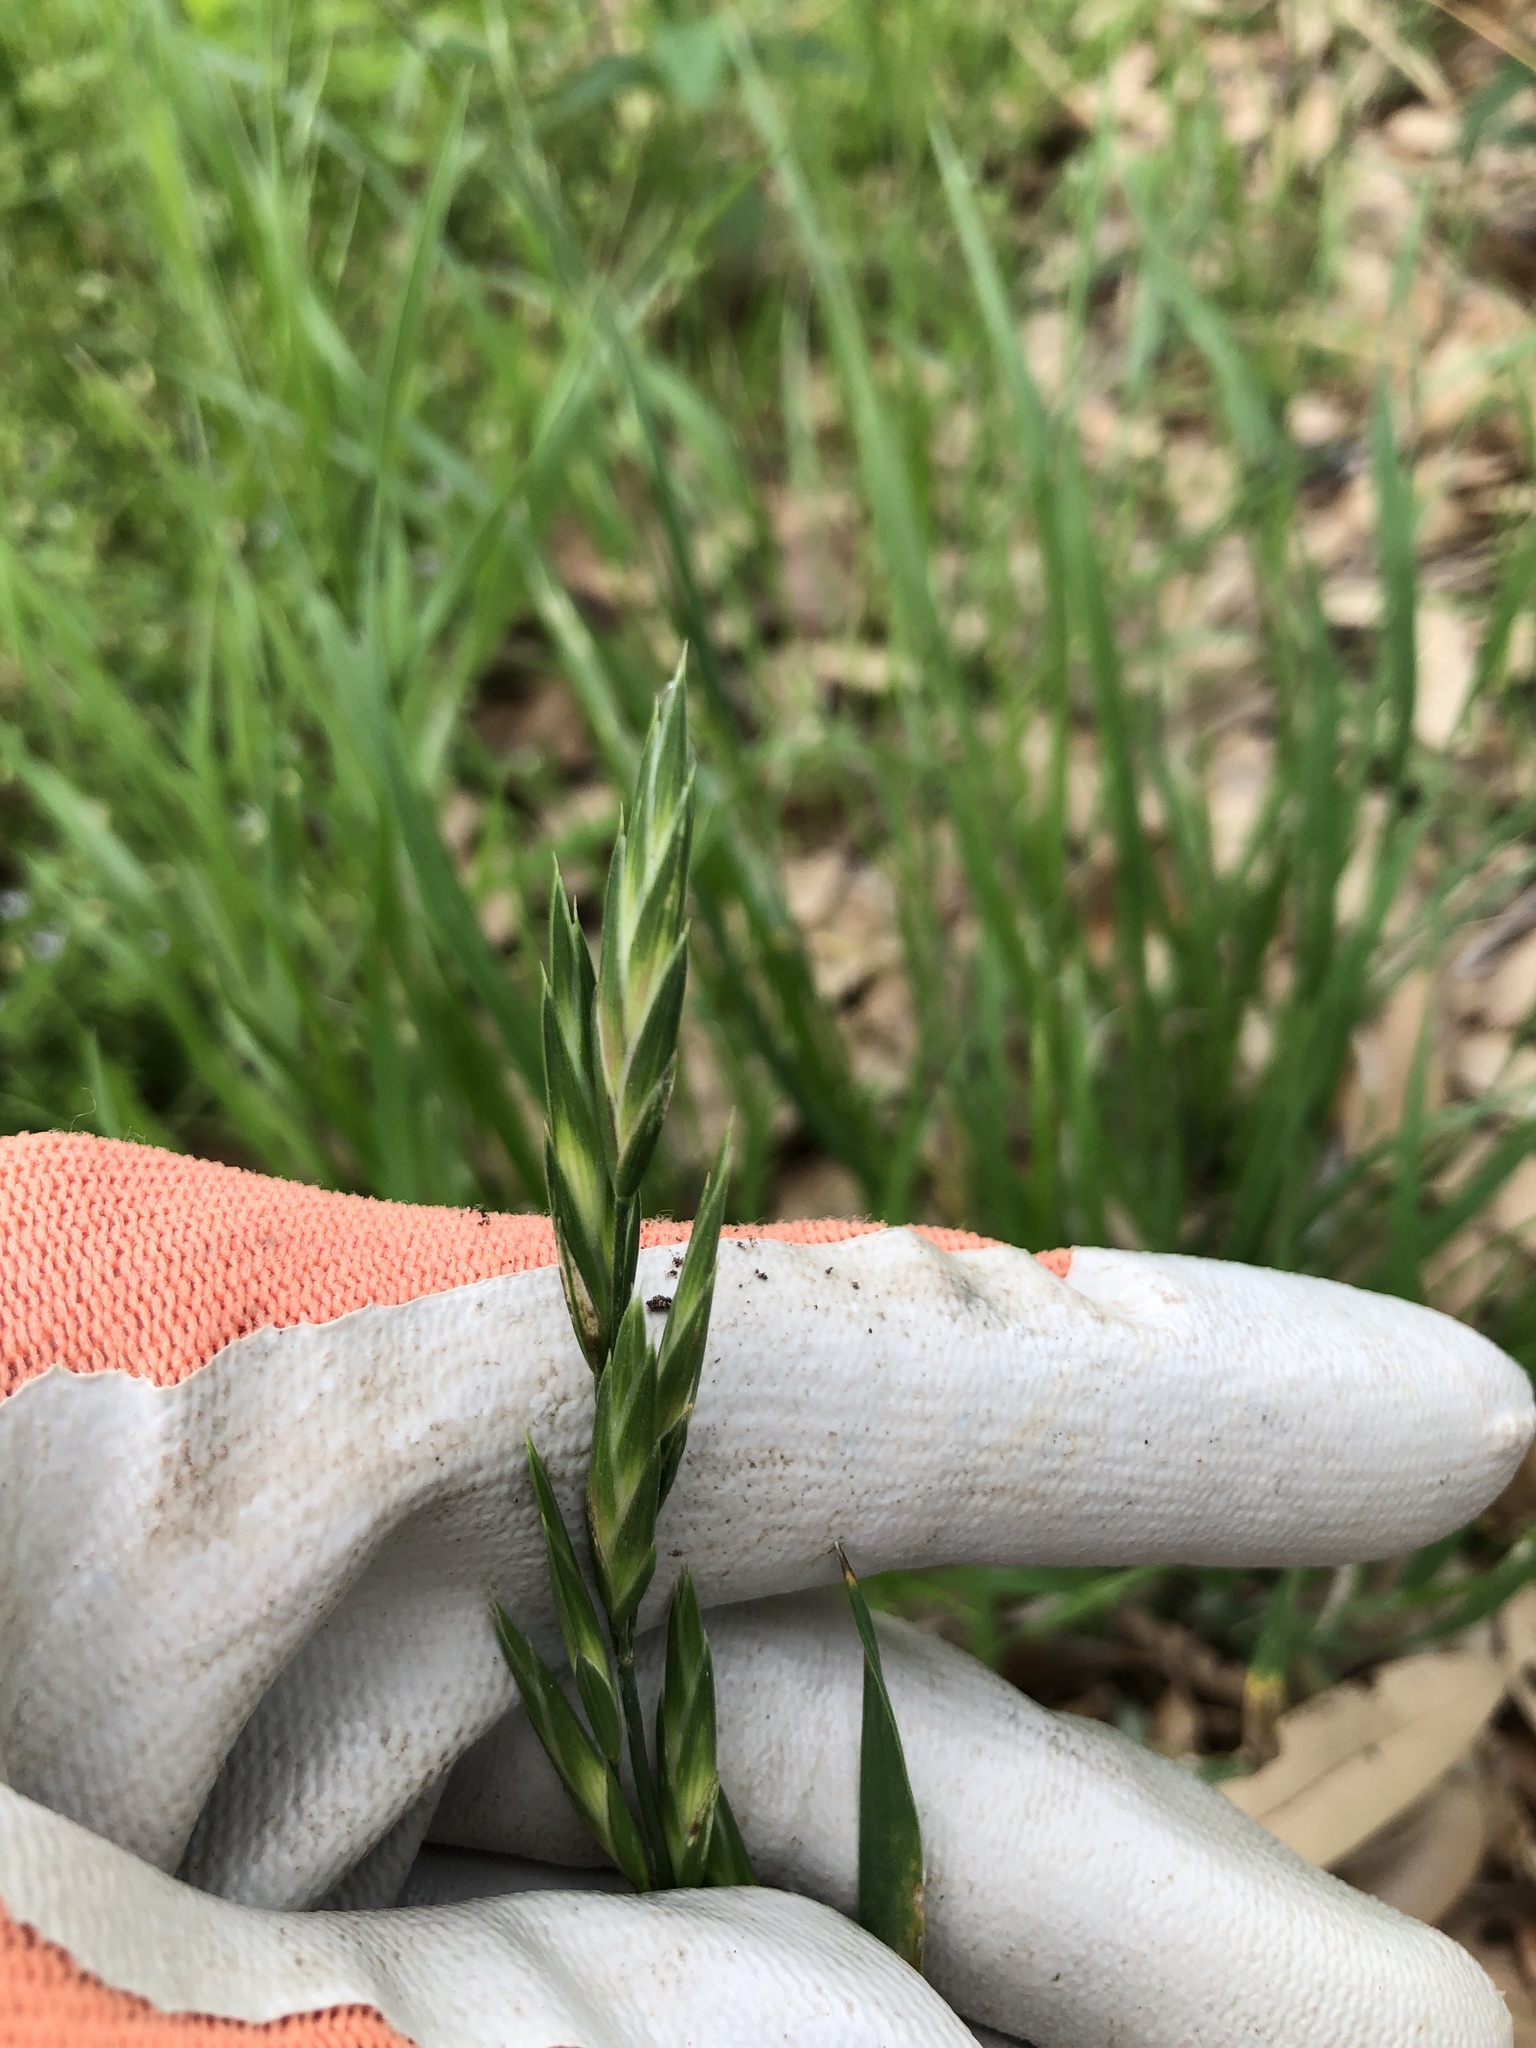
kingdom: Plantae
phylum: Tracheophyta
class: Liliopsida
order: Poales
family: Poaceae
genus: Bromus
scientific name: Bromus catharticus
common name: Rescuegrass
